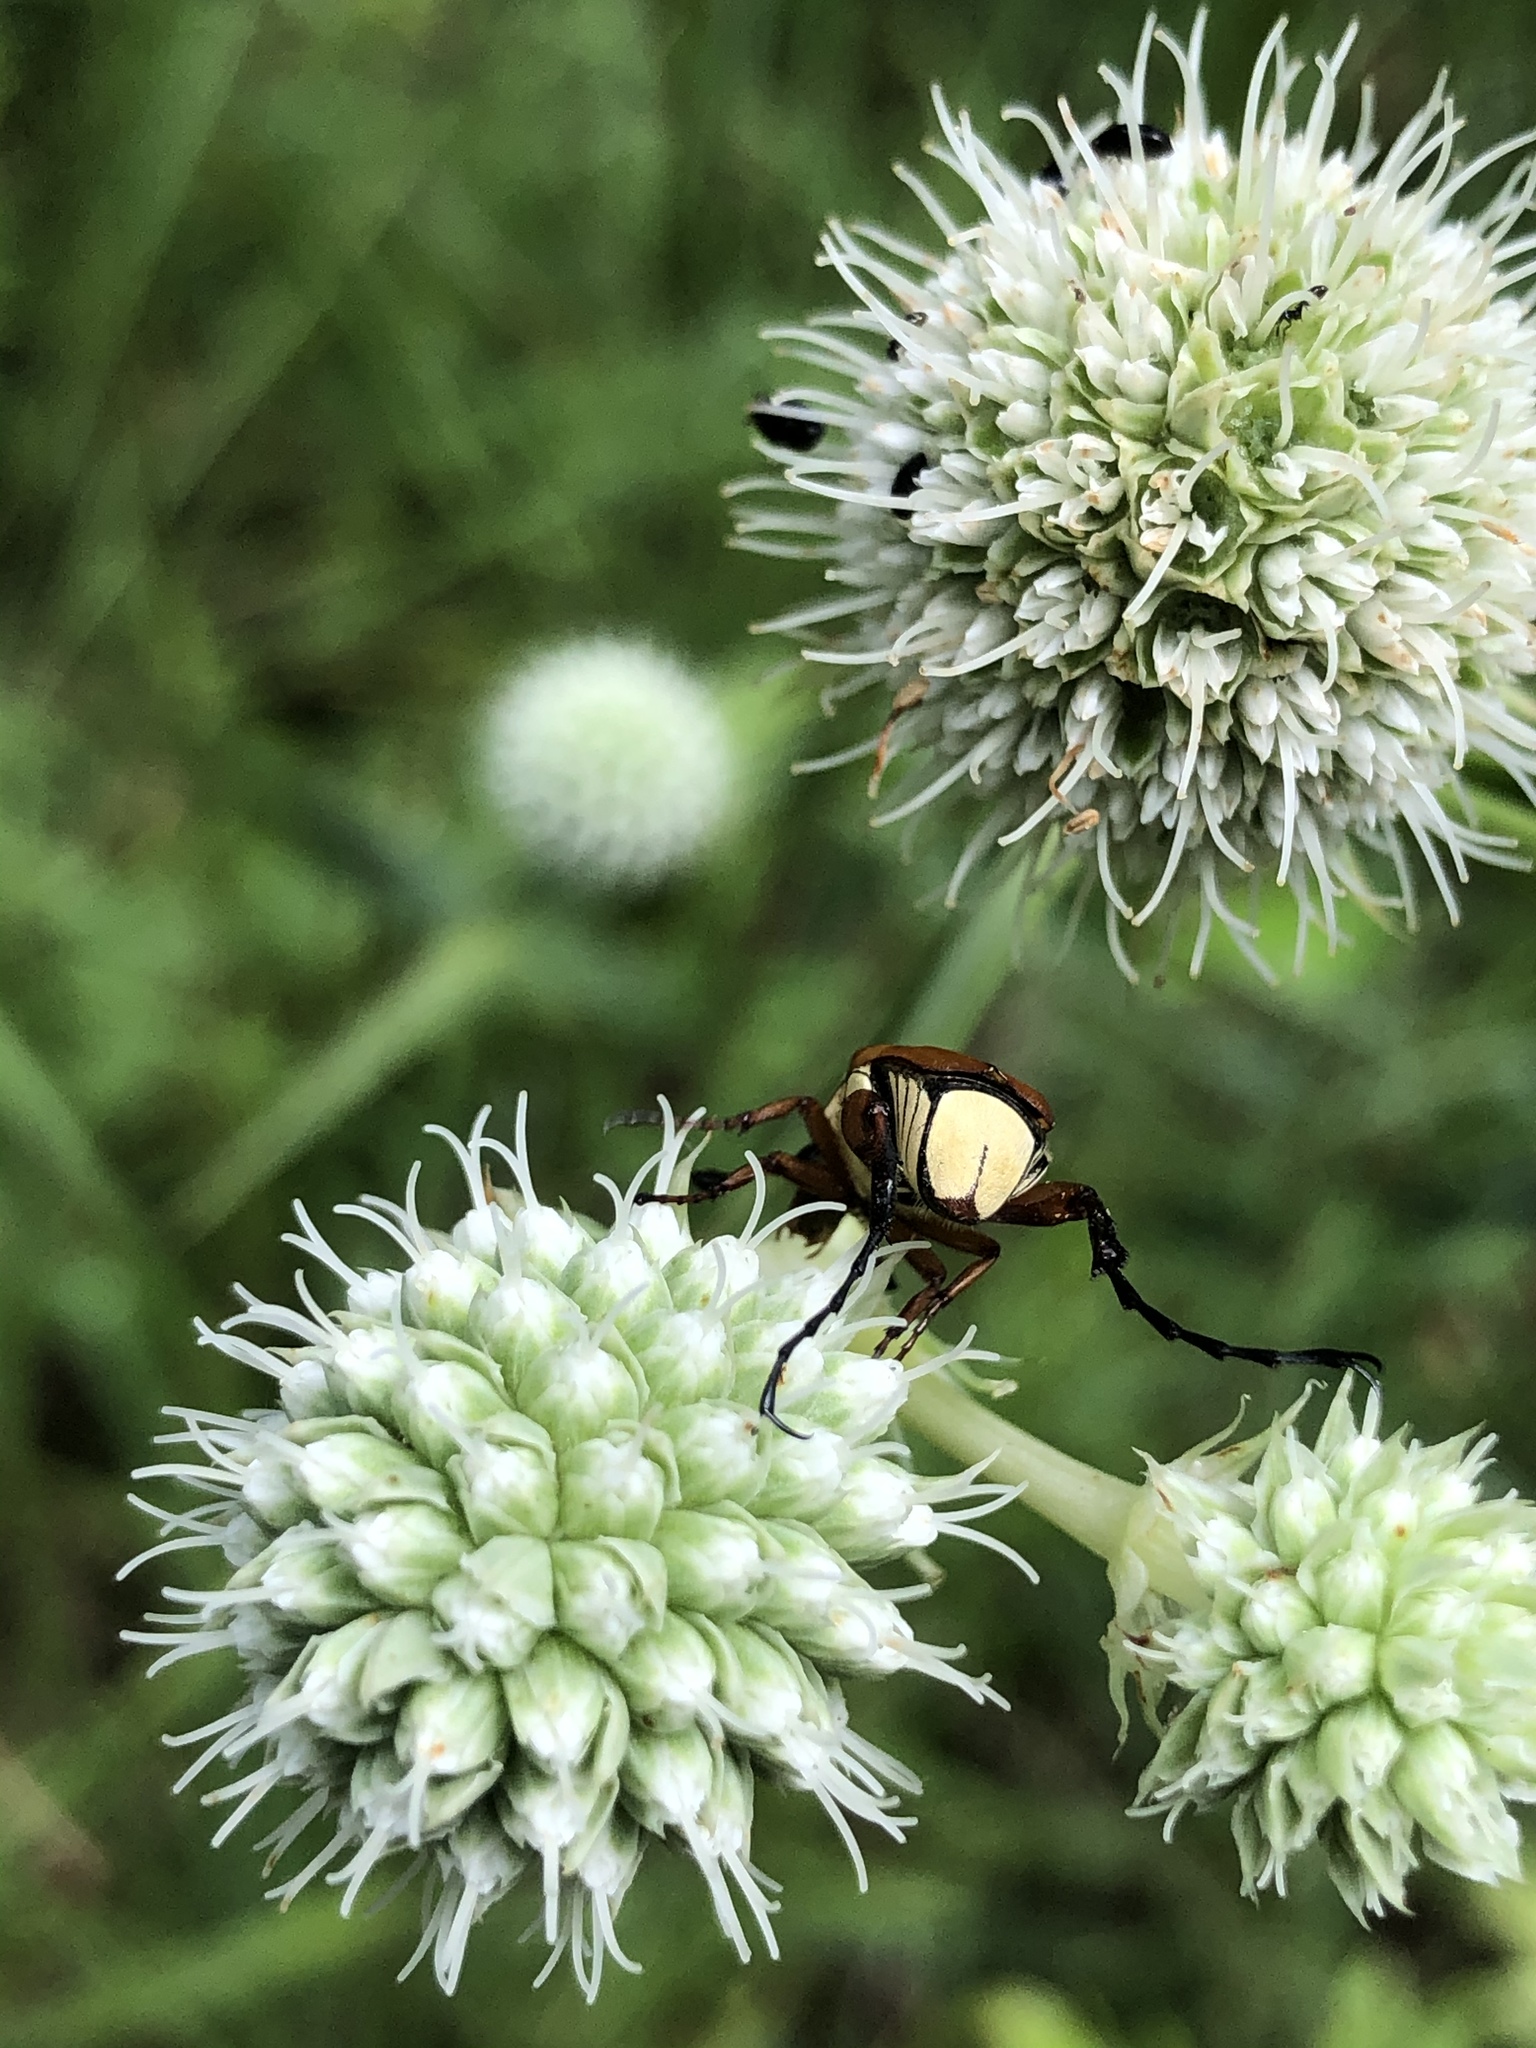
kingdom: Animalia
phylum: Arthropoda
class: Insecta
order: Coleoptera
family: Scarabaeidae
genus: Trigonopeltastes
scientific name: Trigonopeltastes delta
